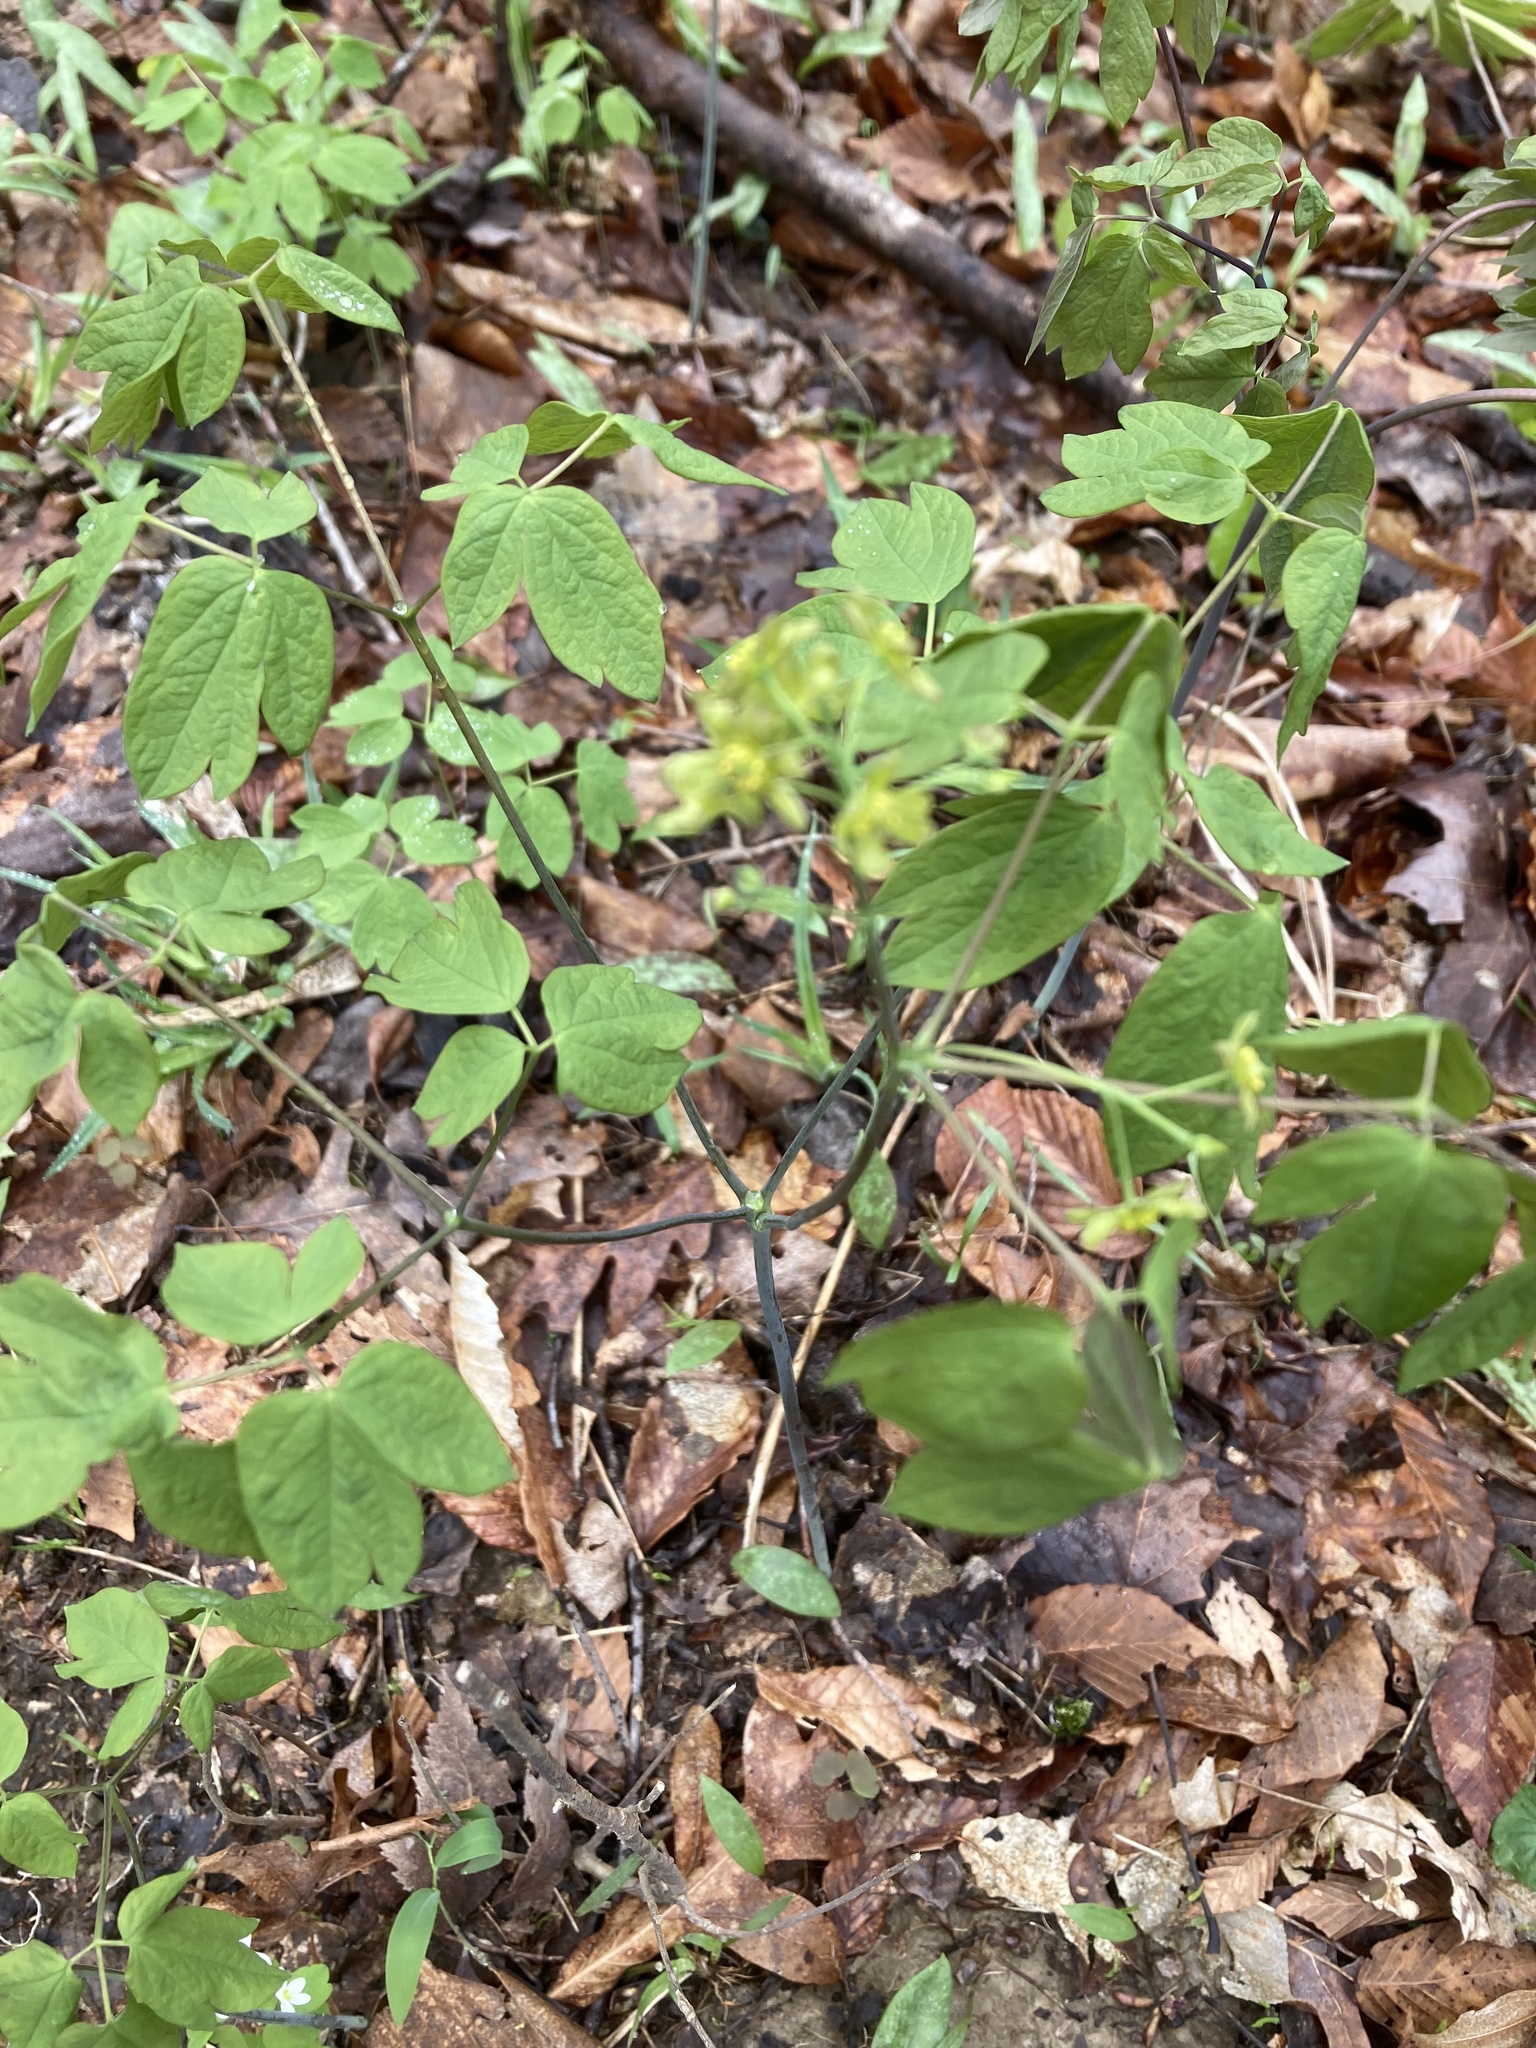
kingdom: Plantae
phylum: Tracheophyta
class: Magnoliopsida
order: Ranunculales
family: Berberidaceae
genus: Caulophyllum
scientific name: Caulophyllum thalictroides
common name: Blue cohosh
